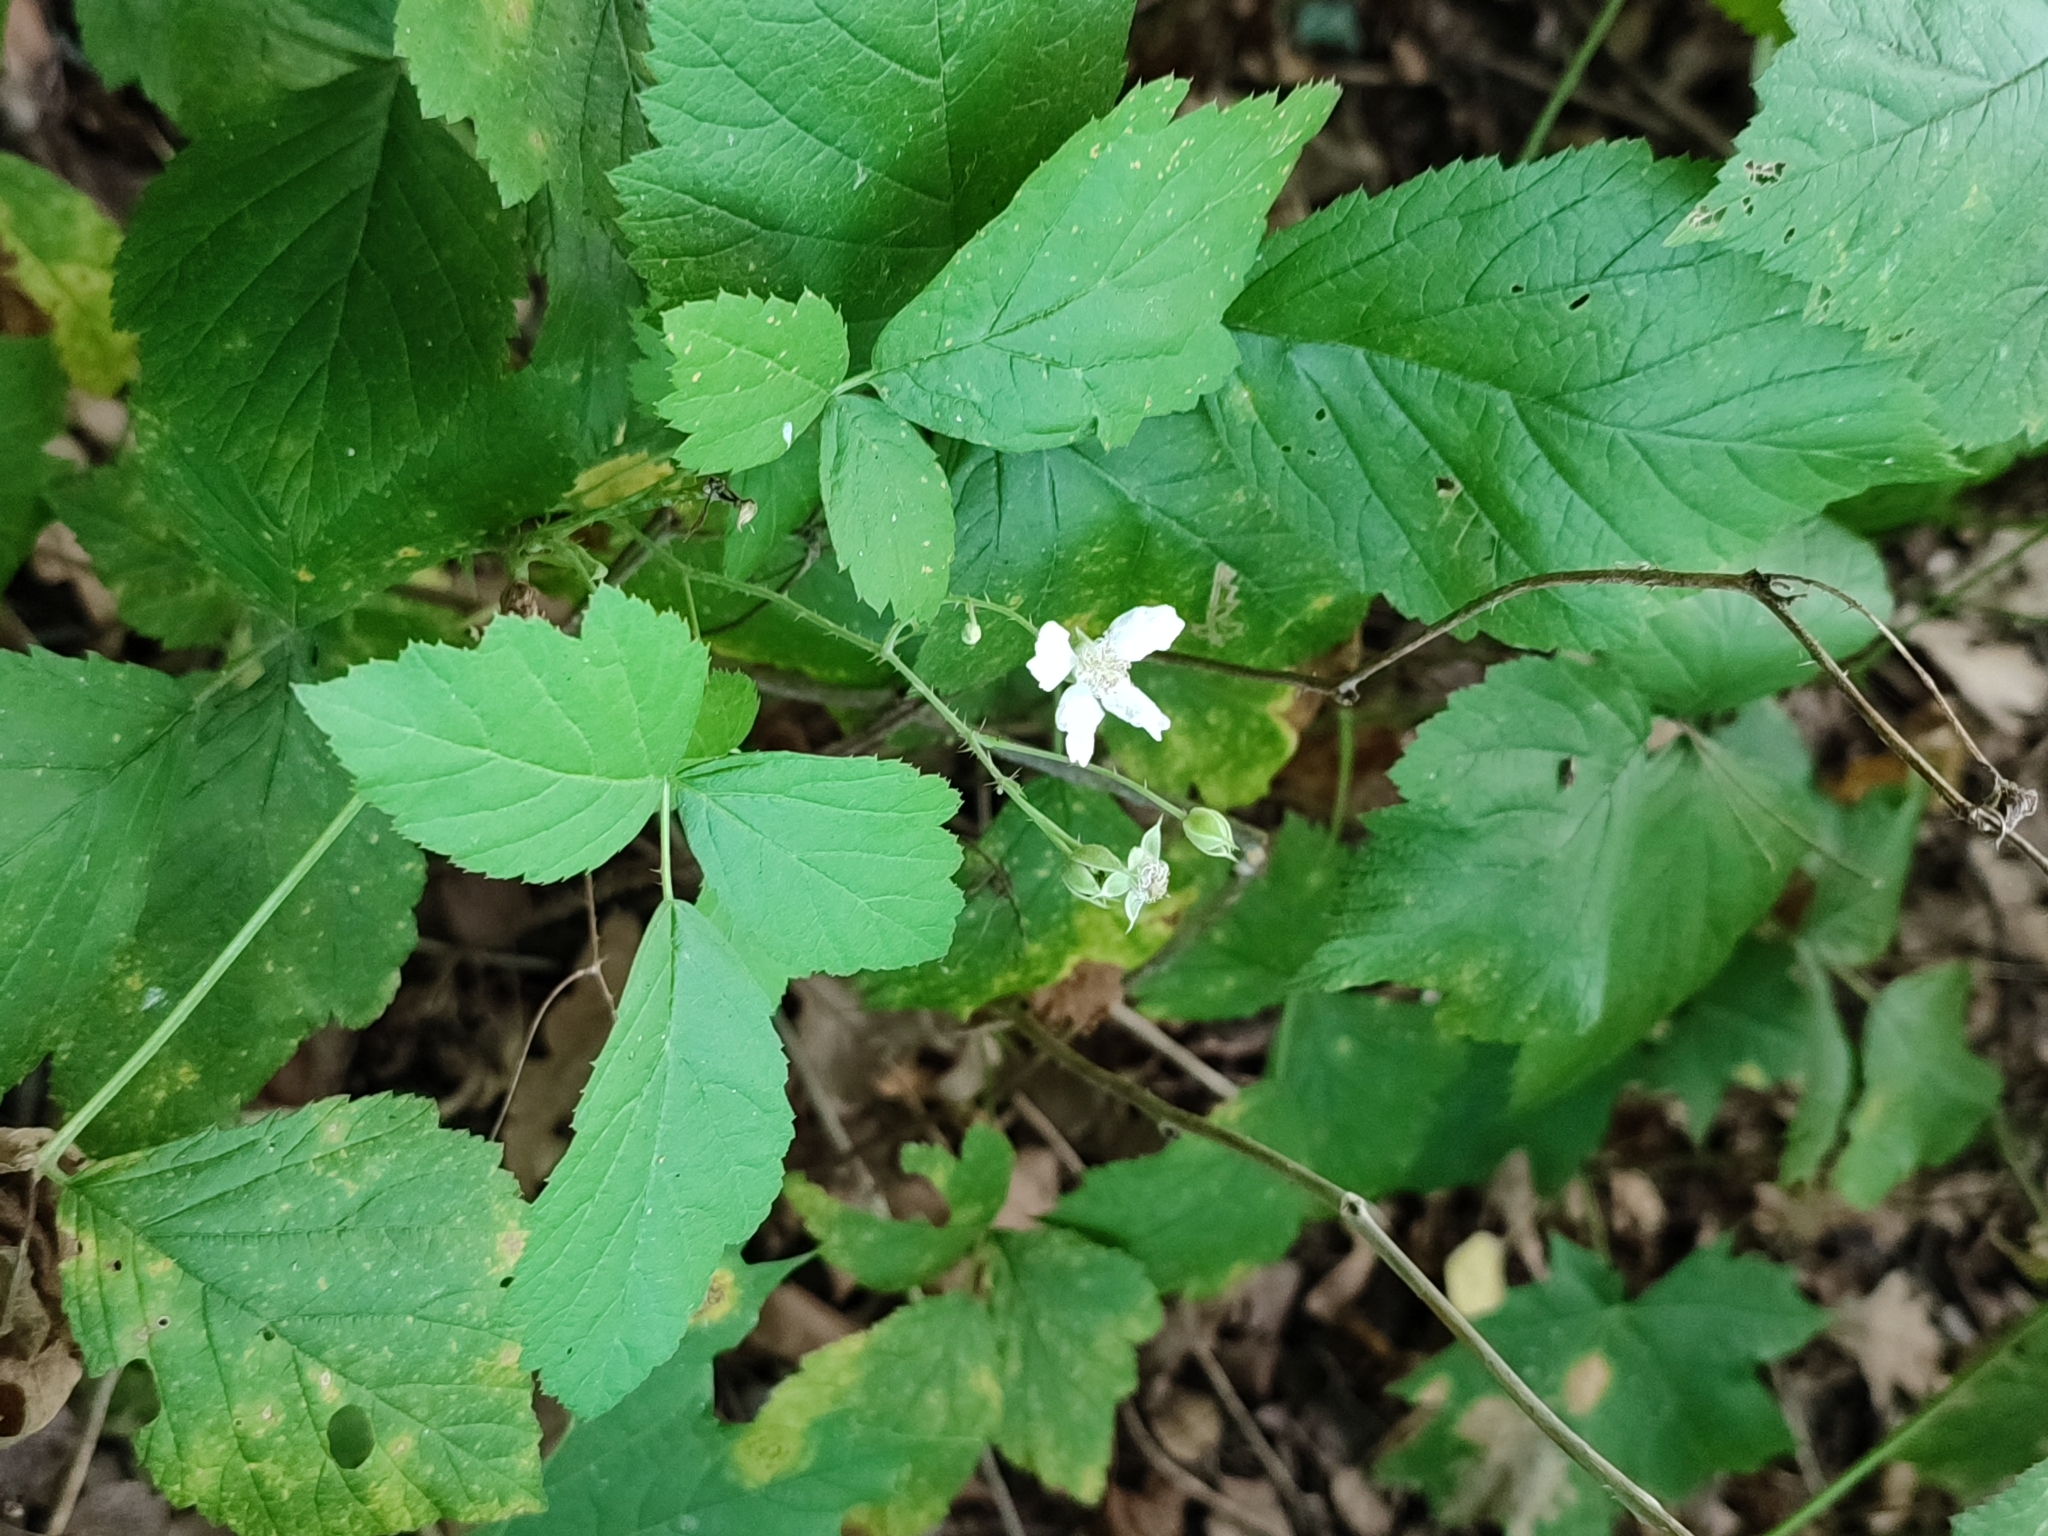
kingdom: Plantae
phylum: Tracheophyta
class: Magnoliopsida
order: Rosales
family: Rosaceae
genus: Rubus
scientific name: Rubus caesius
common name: Dewberry
